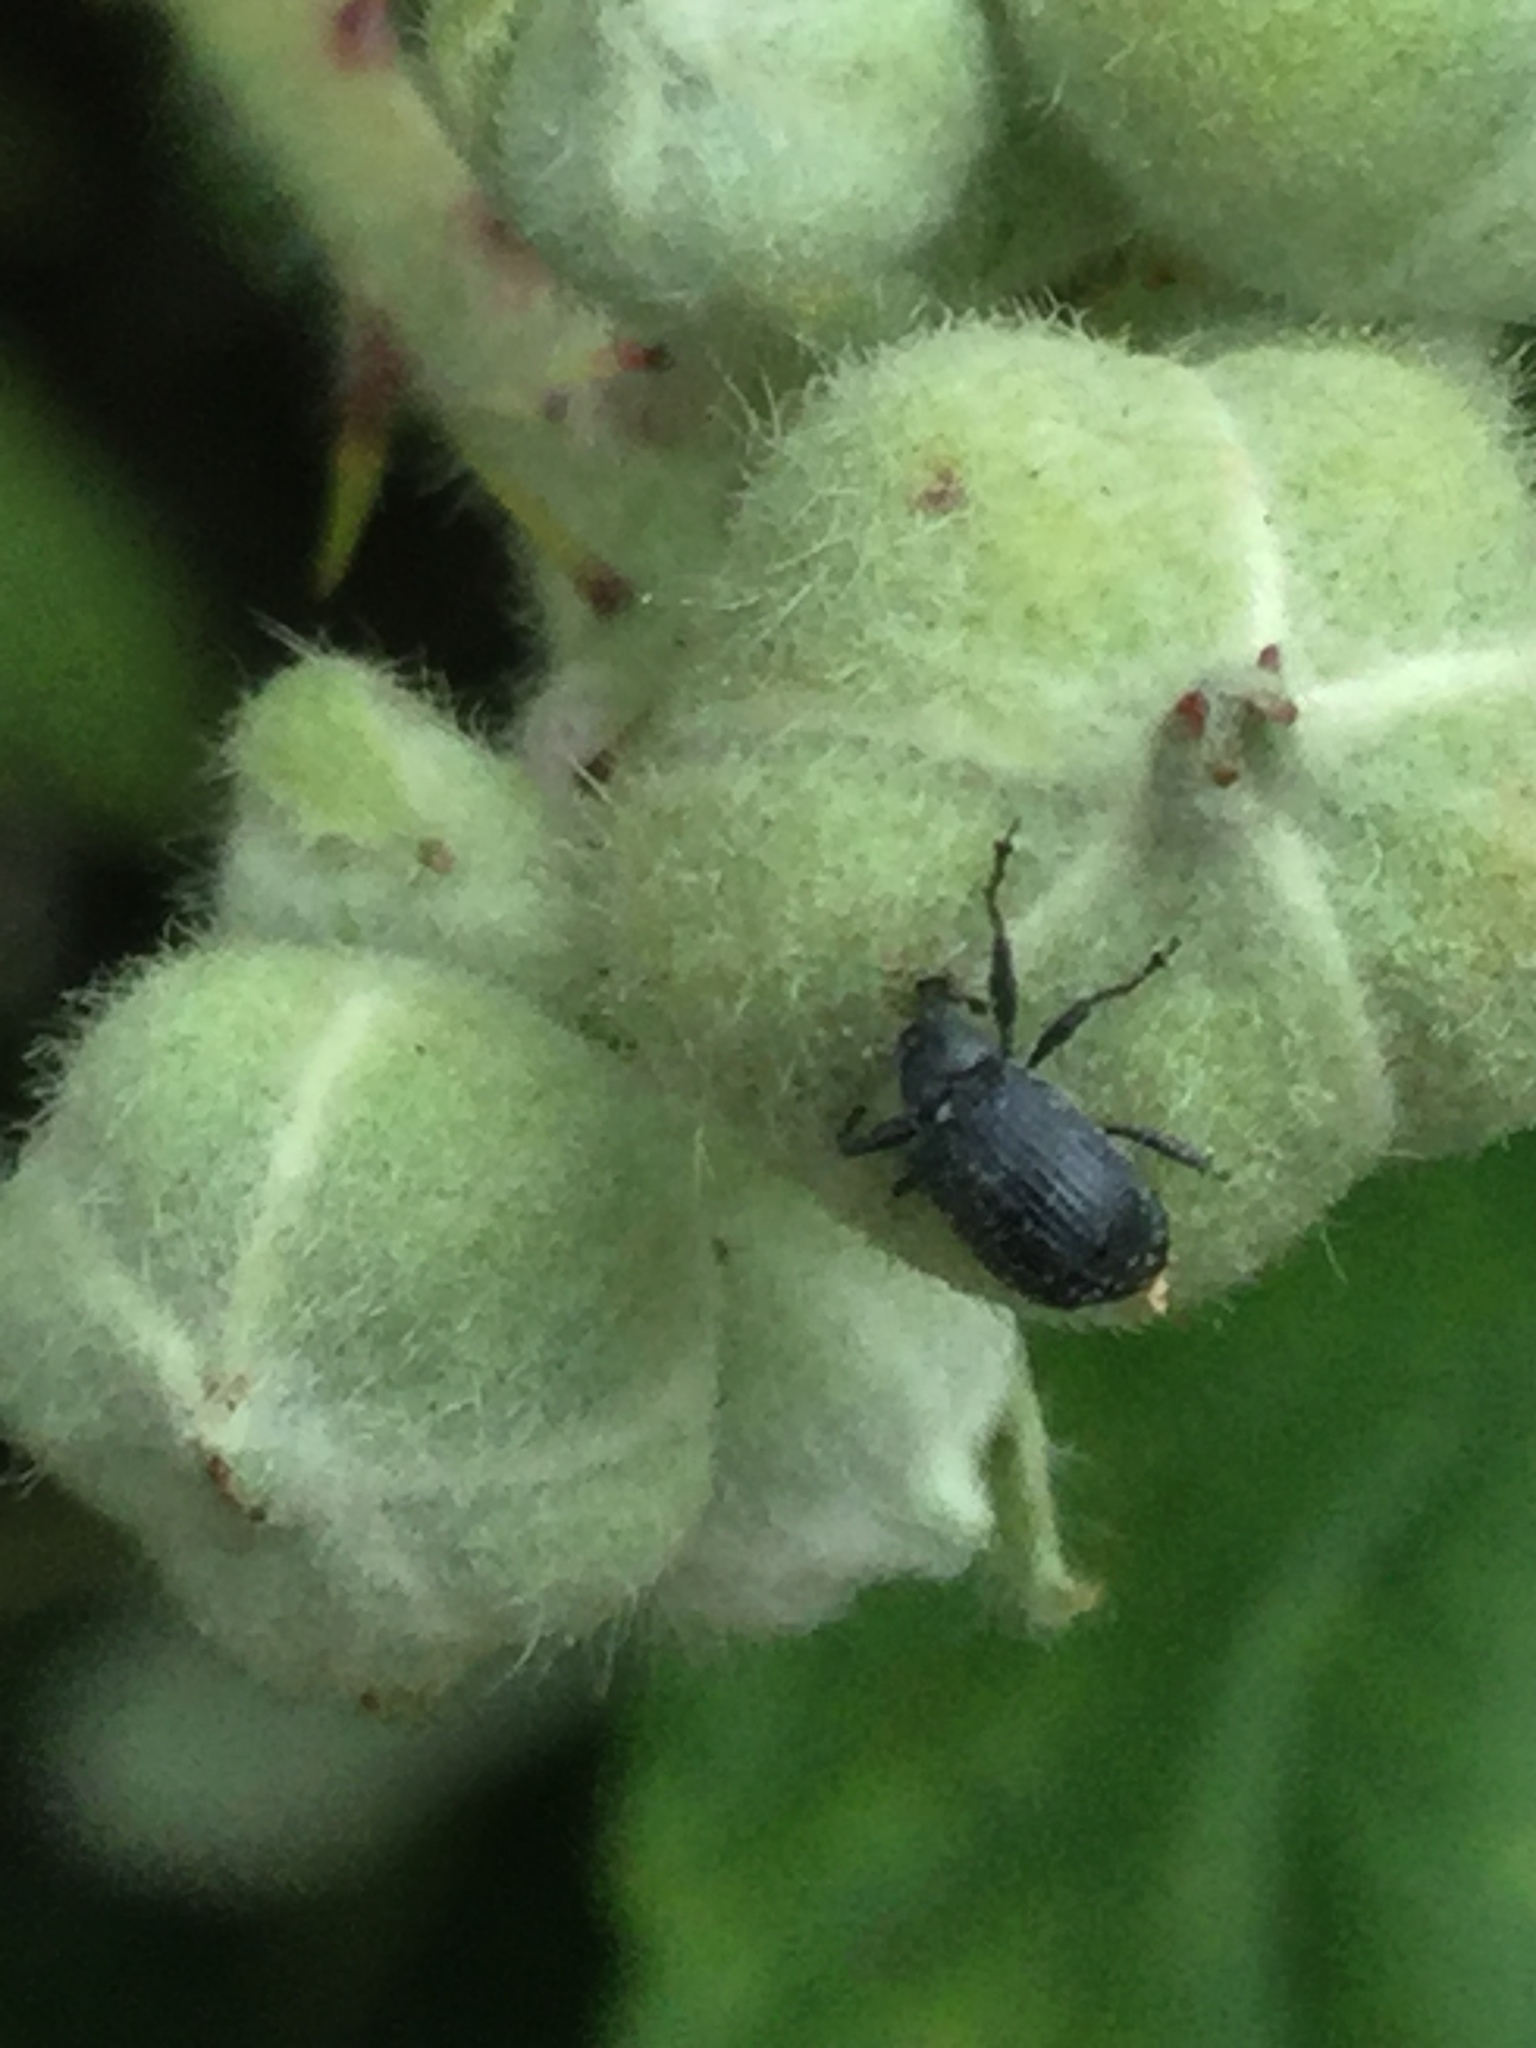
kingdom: Animalia
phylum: Arthropoda
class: Insecta
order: Coleoptera
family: Curculionidae
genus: Anthonomus
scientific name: Anthonomus rubi
